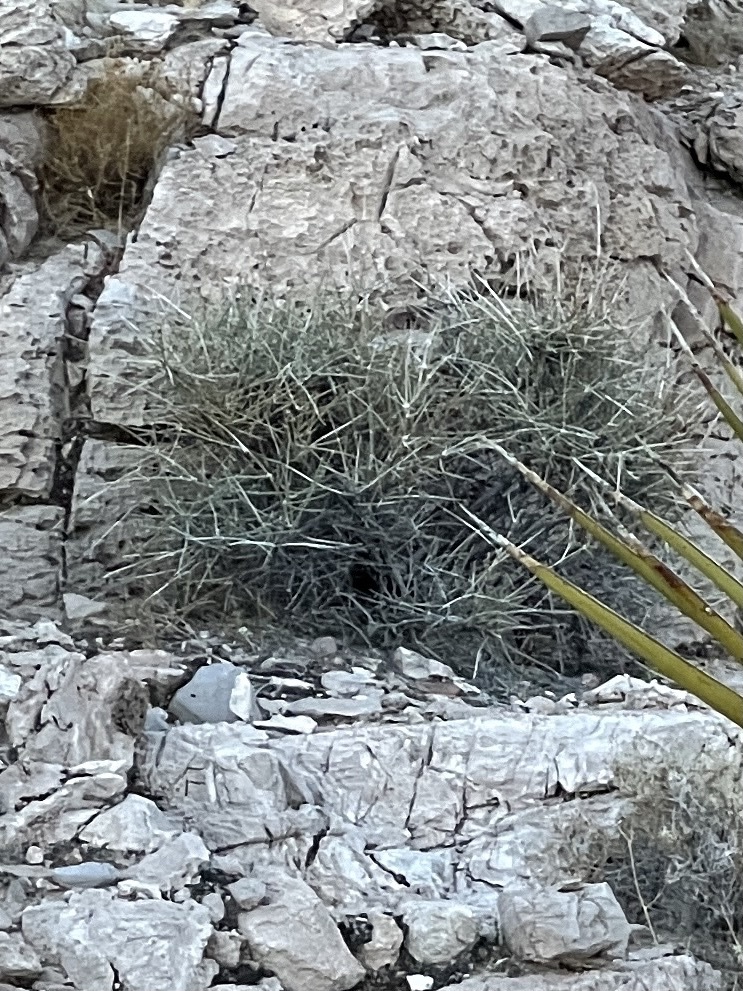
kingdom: Plantae
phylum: Tracheophyta
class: Gnetopsida
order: Ephedrales
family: Ephedraceae
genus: Ephedra
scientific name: Ephedra nevadensis
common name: Gray ephedra
